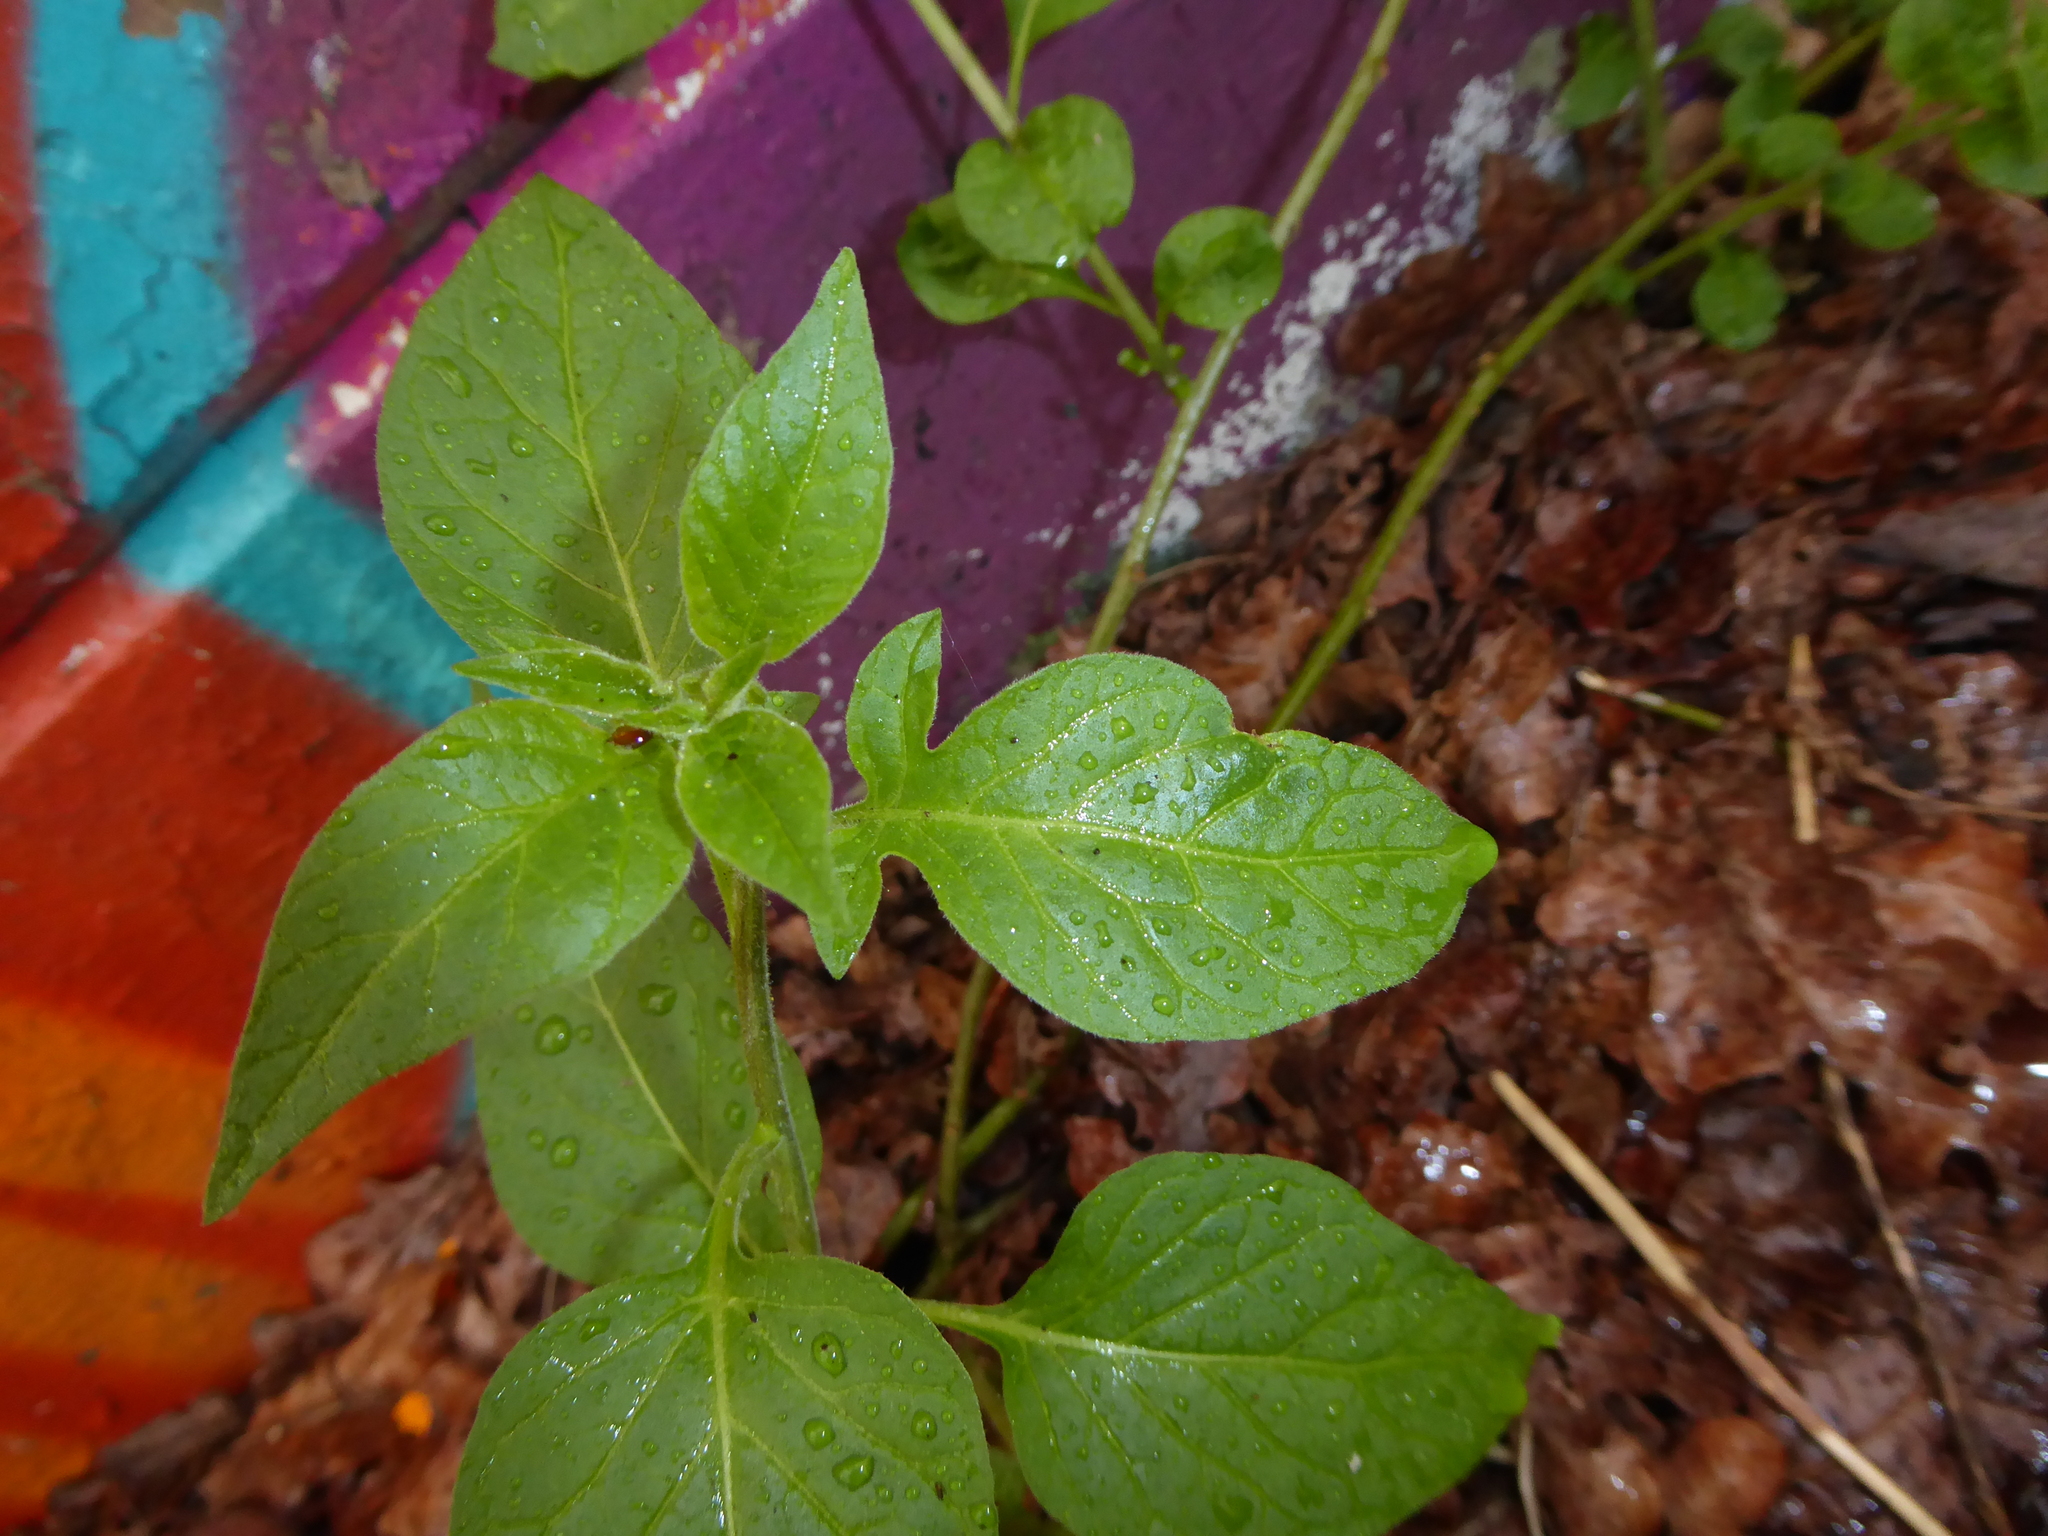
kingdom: Plantae
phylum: Tracheophyta
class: Magnoliopsida
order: Solanales
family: Solanaceae
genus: Solanum
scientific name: Solanum dulcamara
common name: Climbing nightshade
